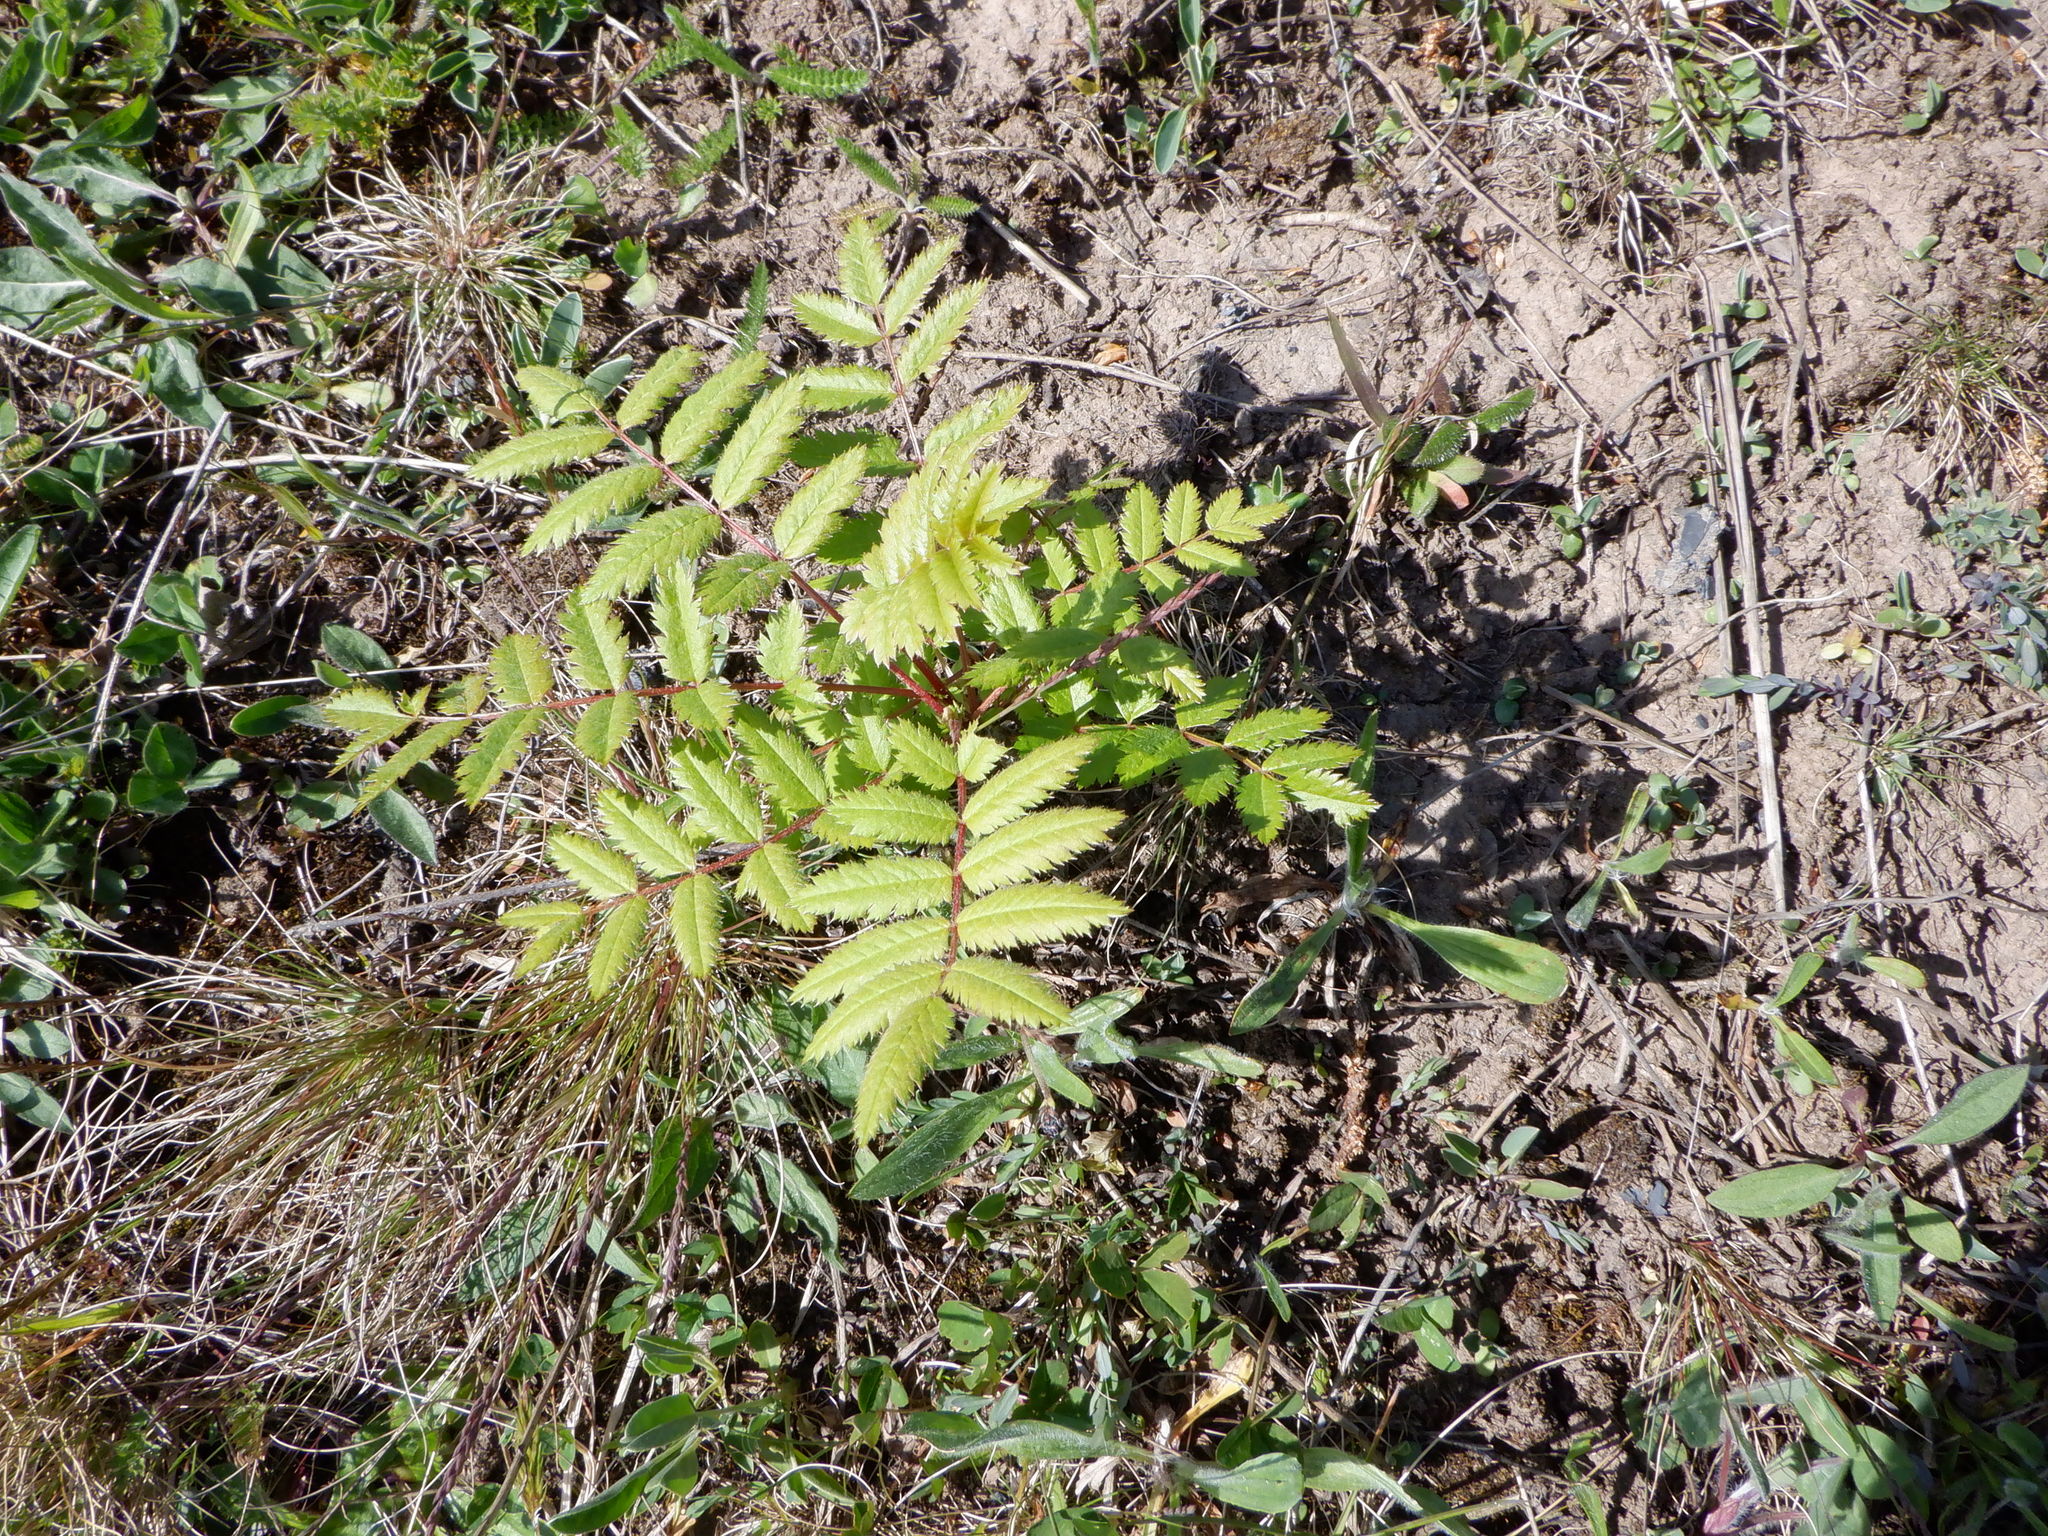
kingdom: Plantae
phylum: Tracheophyta
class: Magnoliopsida
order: Rosales
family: Rosaceae
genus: Sorbus
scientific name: Sorbus aucuparia
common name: Rowan
